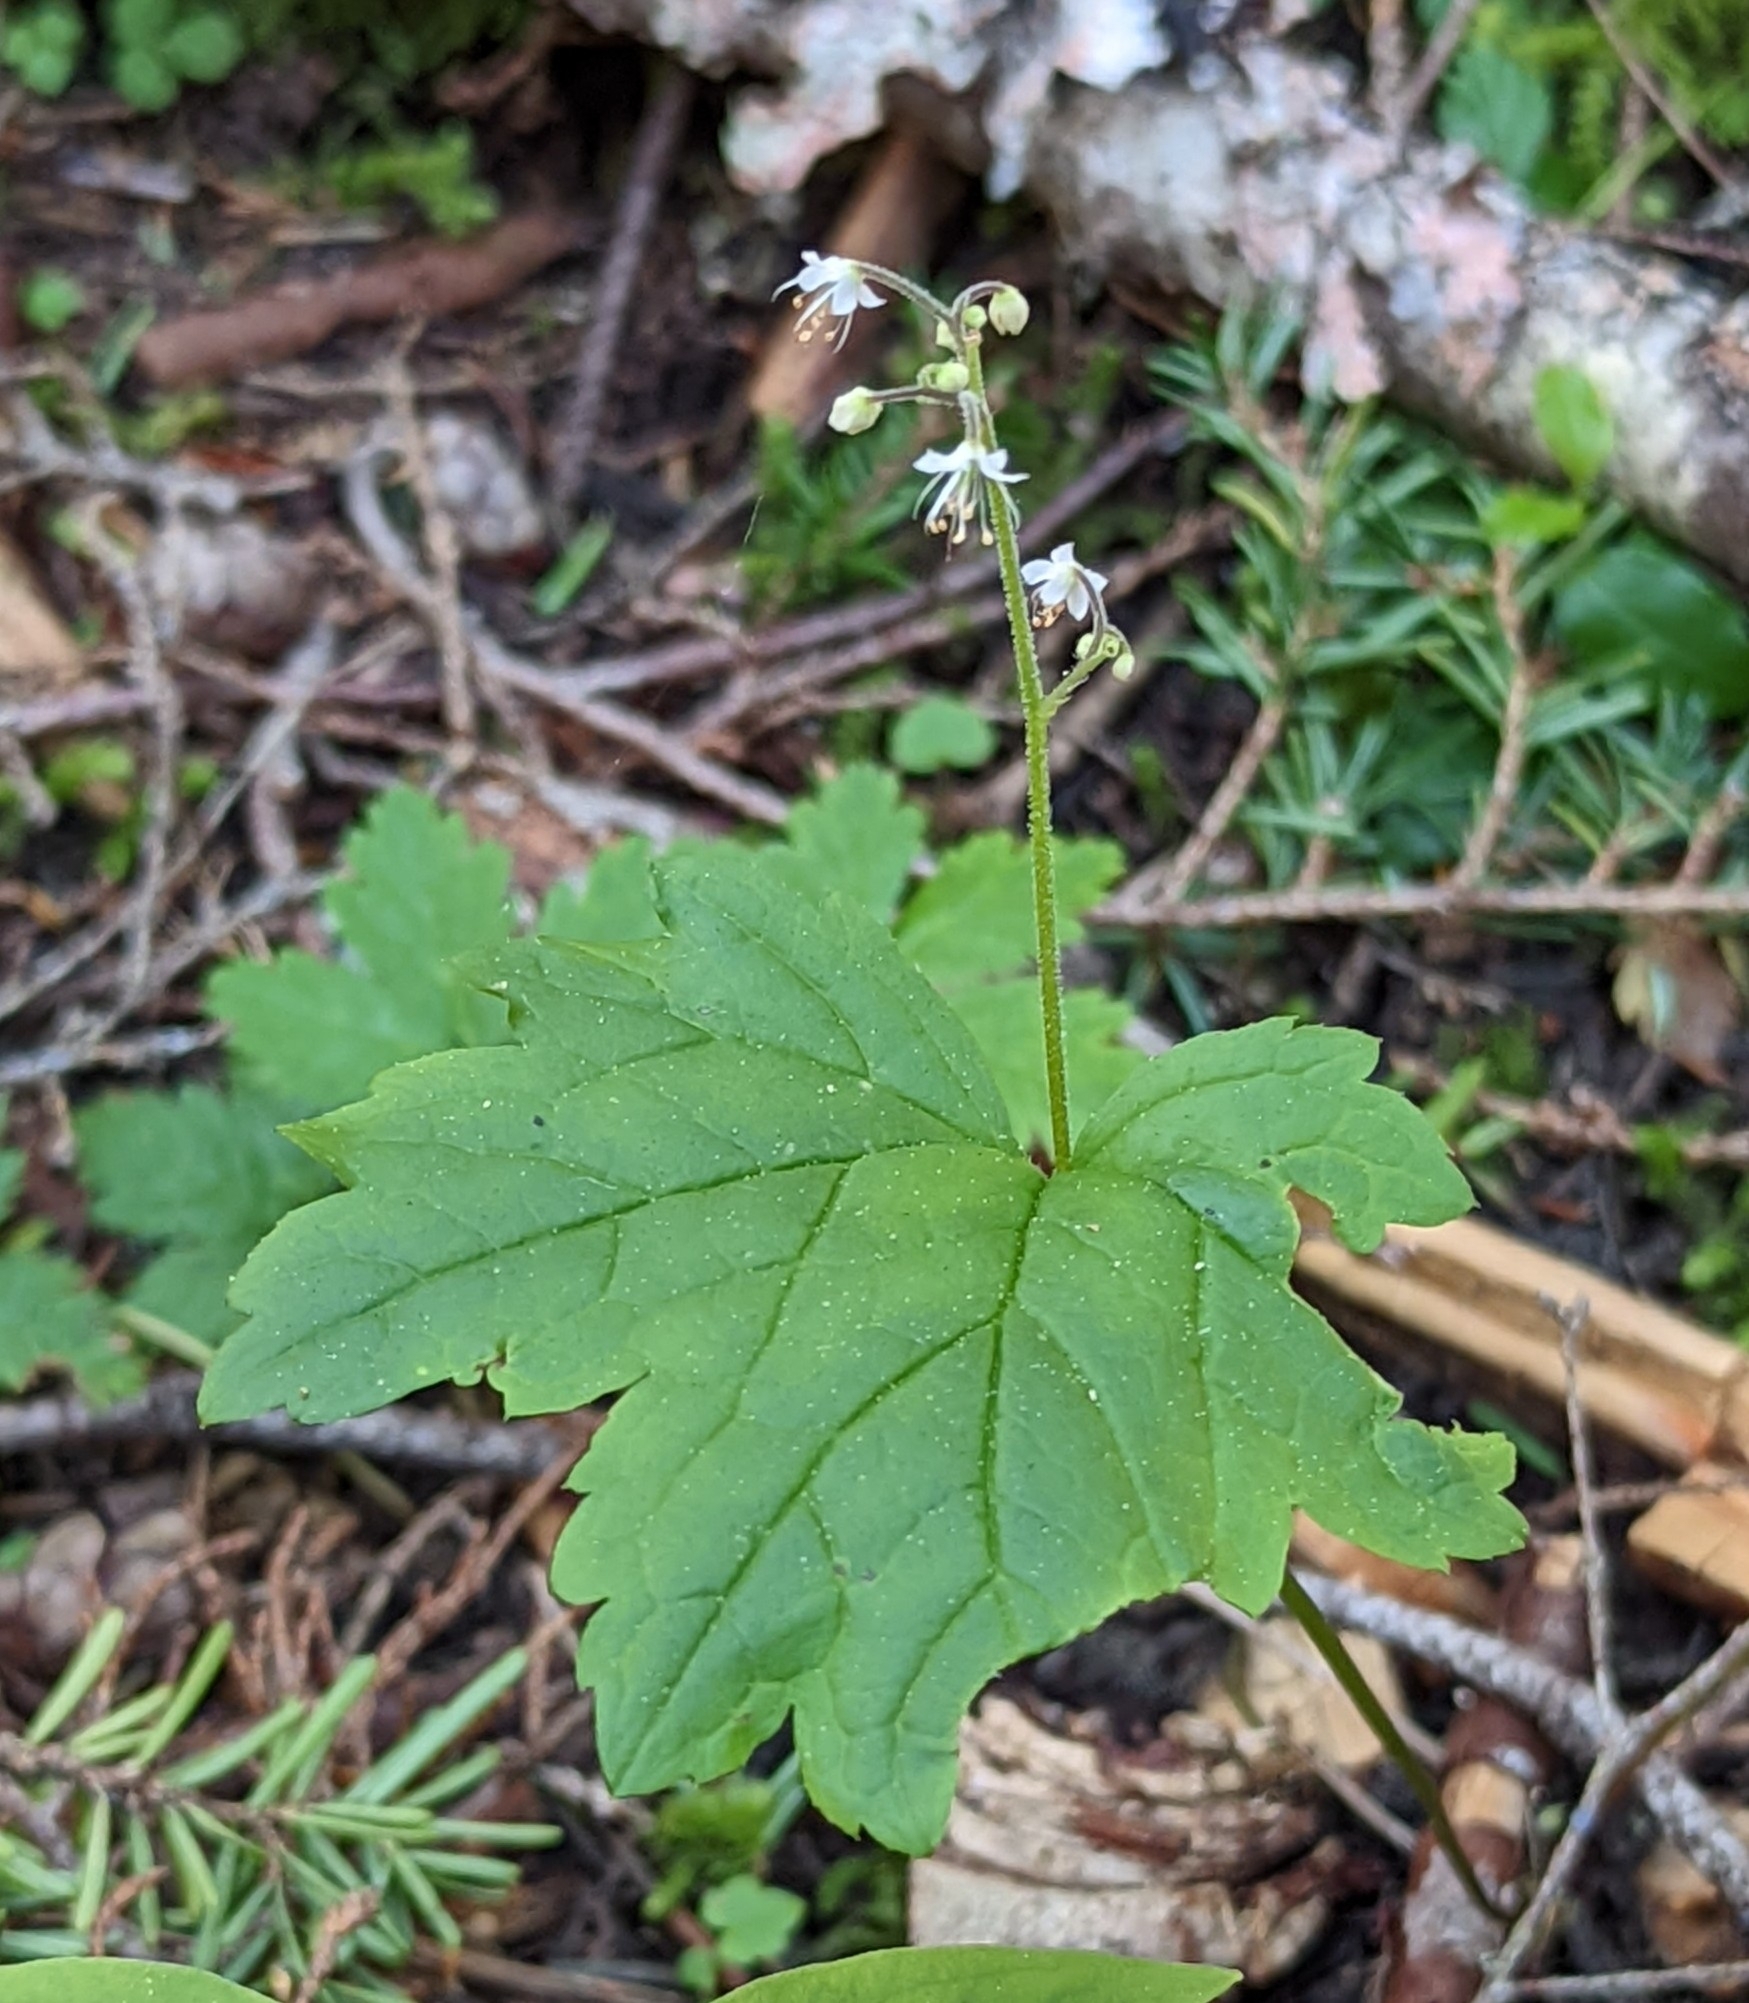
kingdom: Plantae
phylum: Tracheophyta
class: Magnoliopsida
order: Saxifragales
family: Saxifragaceae
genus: Tiarella
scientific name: Tiarella trifoliata
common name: Sugar-scoop
